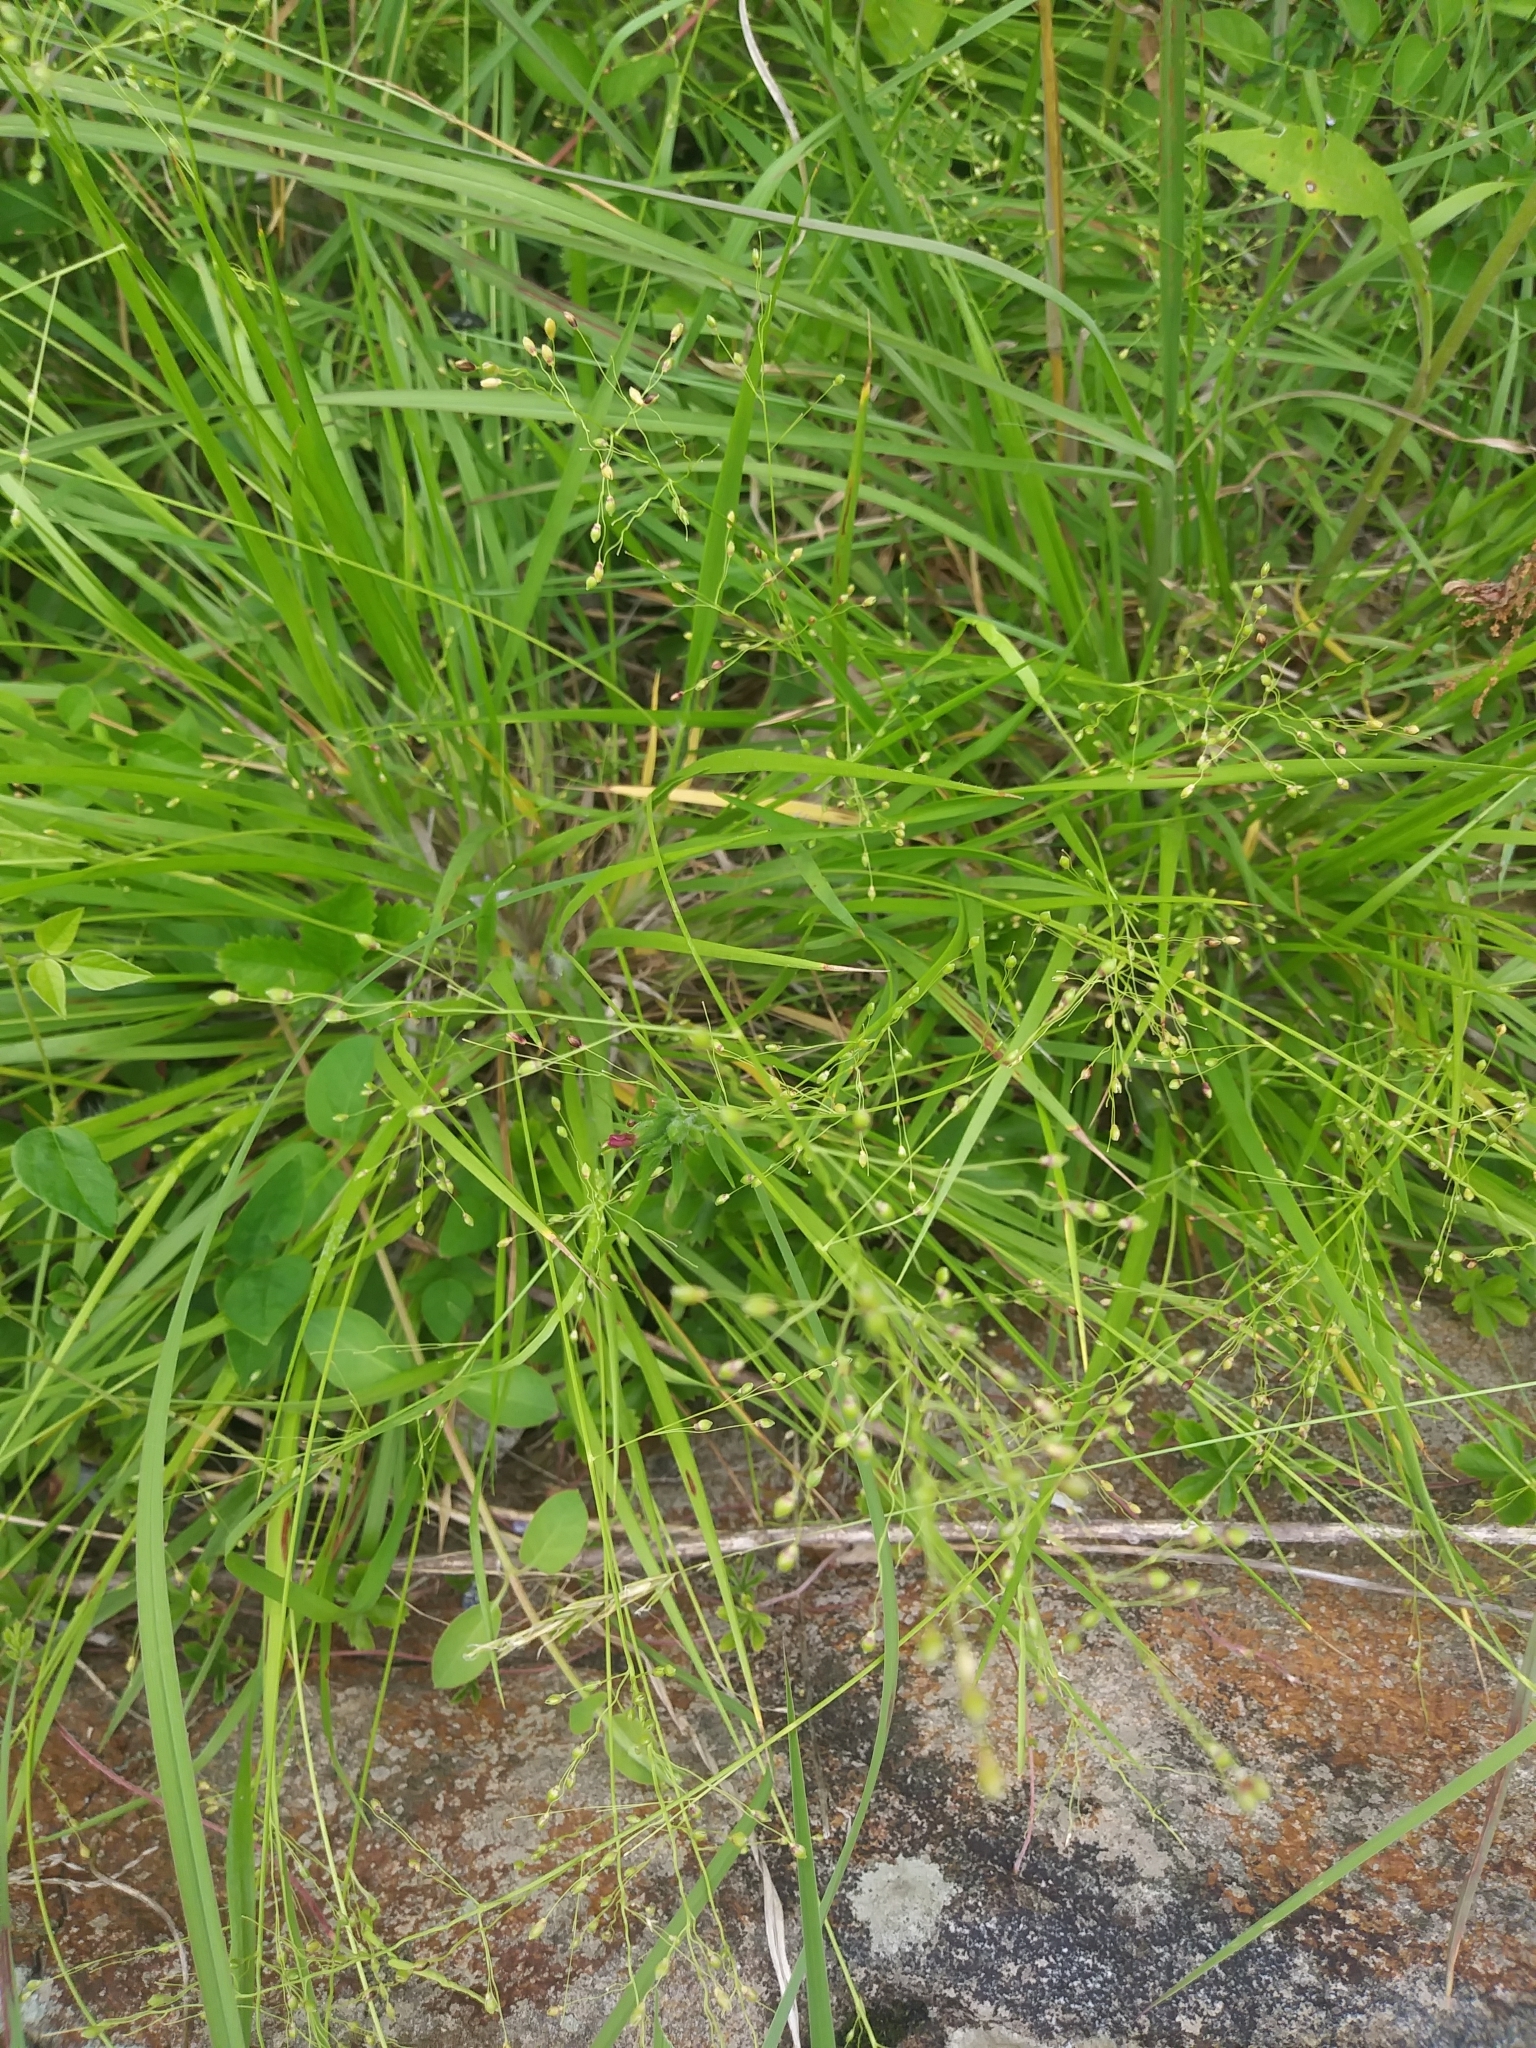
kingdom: Plantae
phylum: Tracheophyta
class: Liliopsida
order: Poales
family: Poaceae
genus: Dichanthelium
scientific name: Dichanthelium linearifolium
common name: Linear-leaved panicgrass
